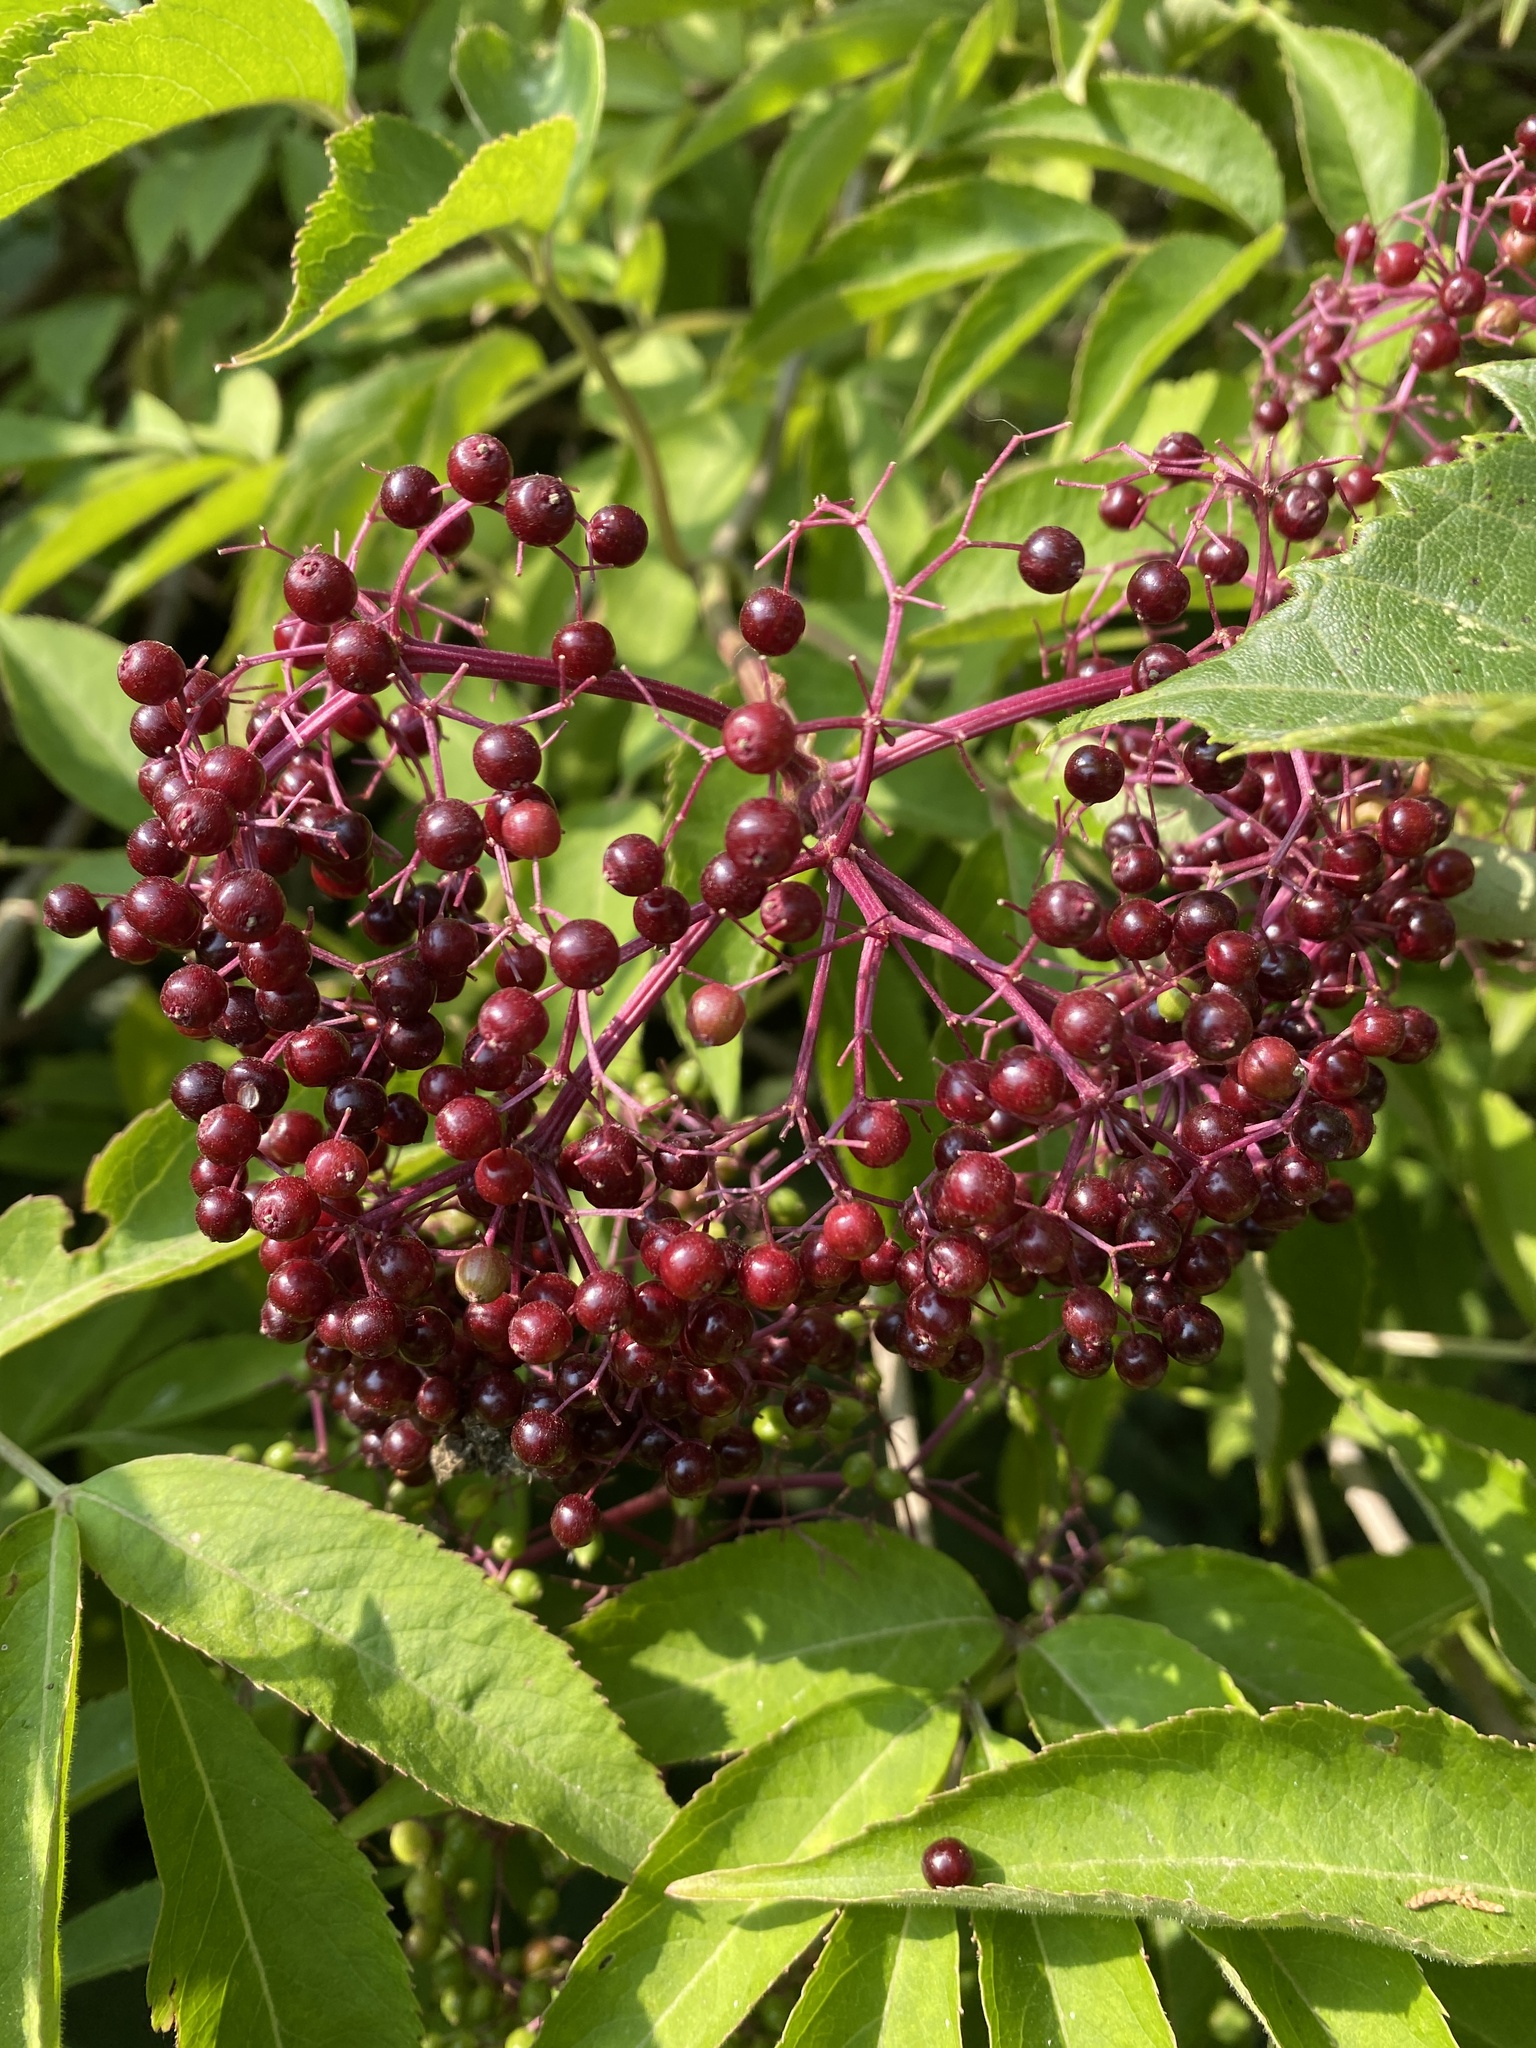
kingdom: Plantae
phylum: Tracheophyta
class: Magnoliopsida
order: Dipsacales
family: Viburnaceae
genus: Sambucus
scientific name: Sambucus canadensis
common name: American elder
